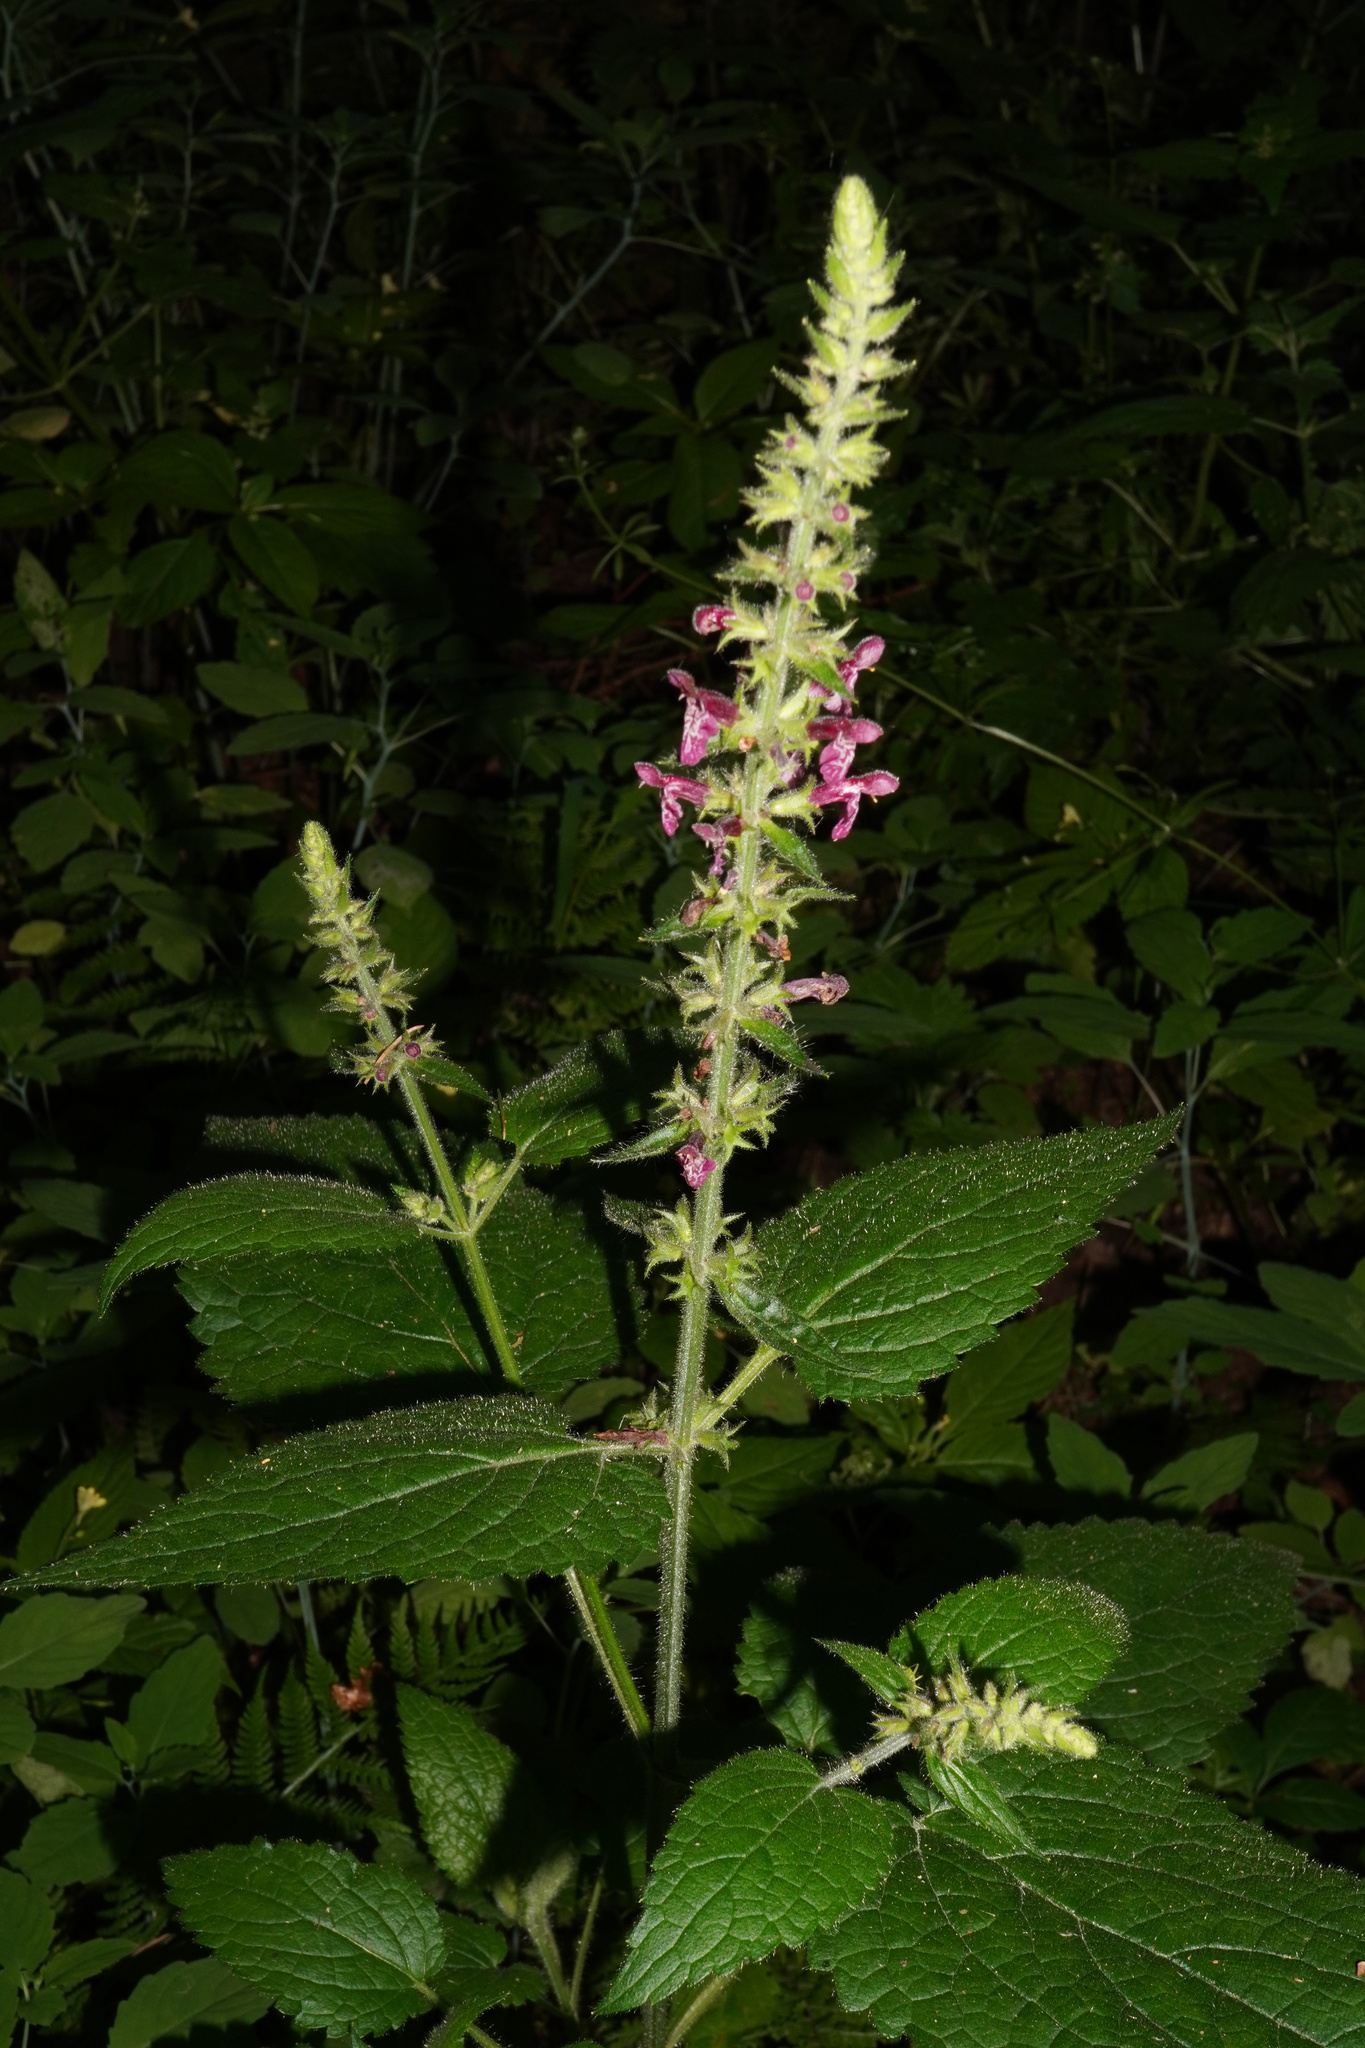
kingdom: Plantae
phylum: Tracheophyta
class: Magnoliopsida
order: Lamiales
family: Lamiaceae
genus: Stachys
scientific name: Stachys sylvatica
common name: Hedge woundwort
